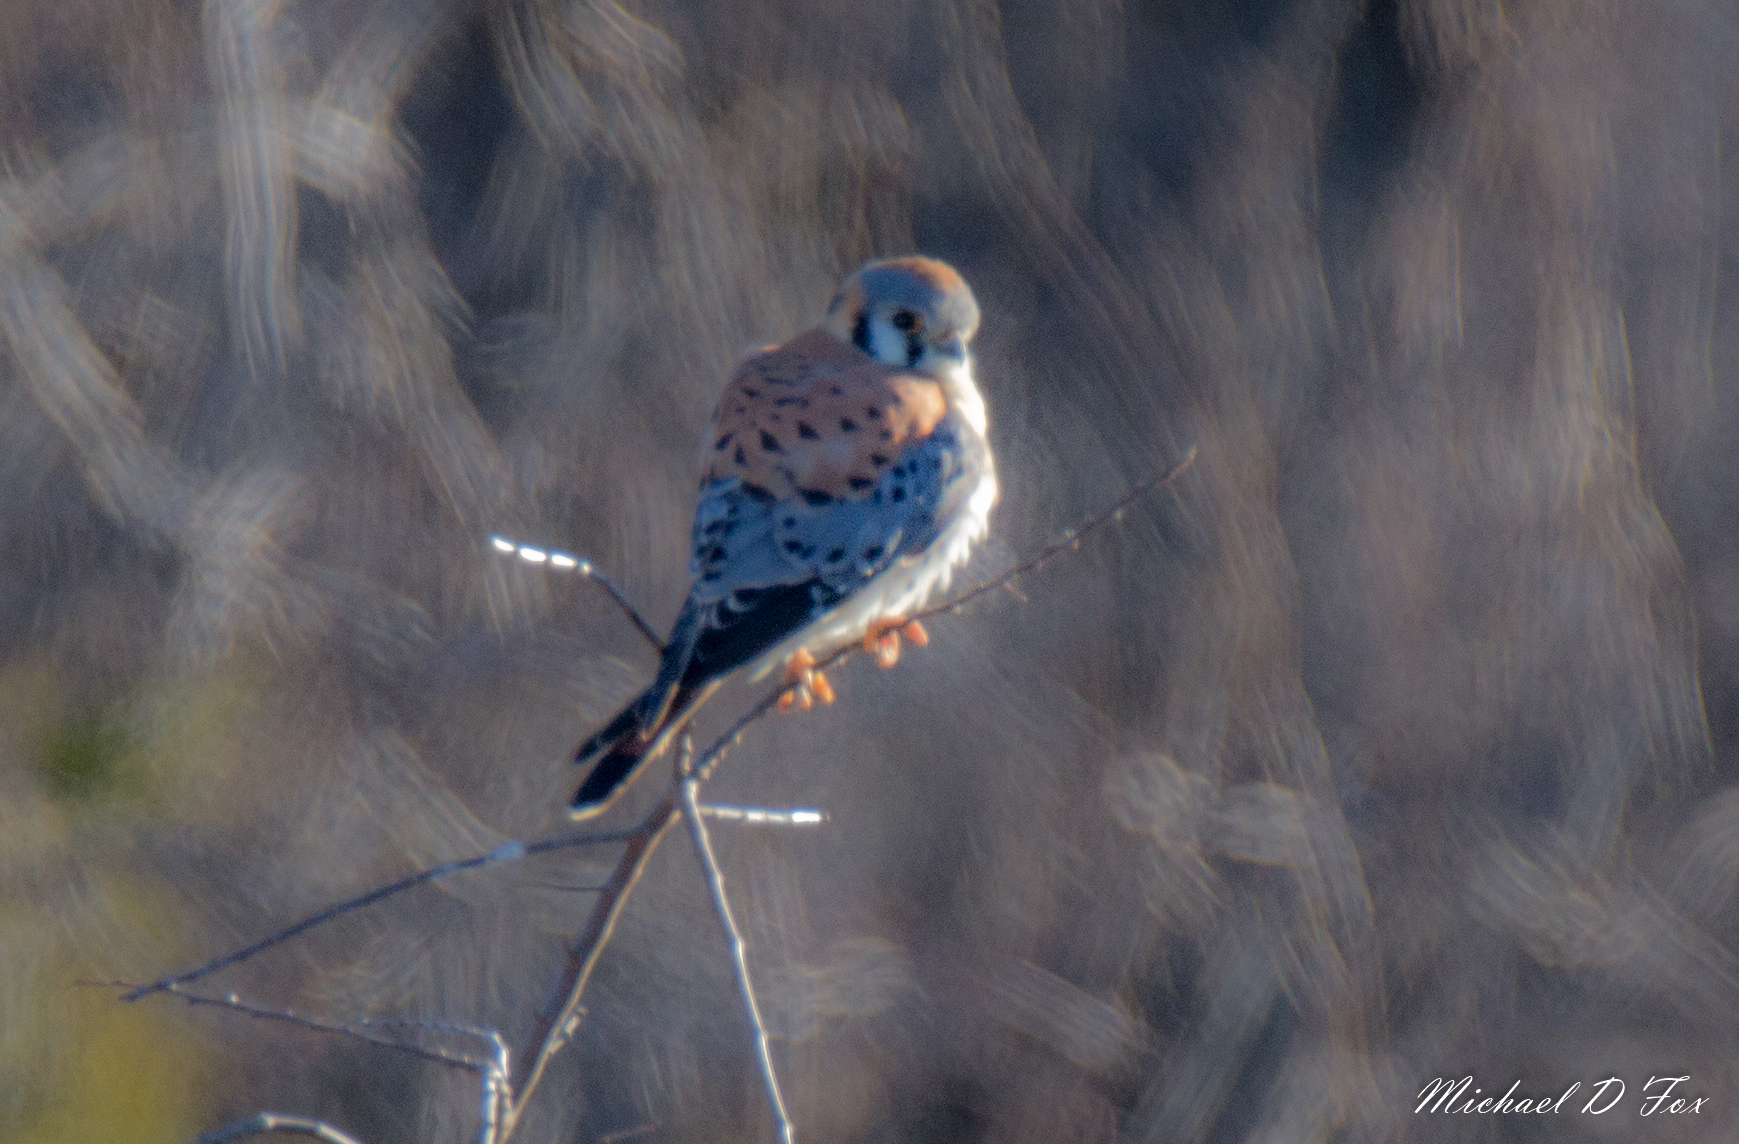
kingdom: Animalia
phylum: Chordata
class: Aves
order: Falconiformes
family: Falconidae
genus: Falco
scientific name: Falco sparverius
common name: American kestrel
